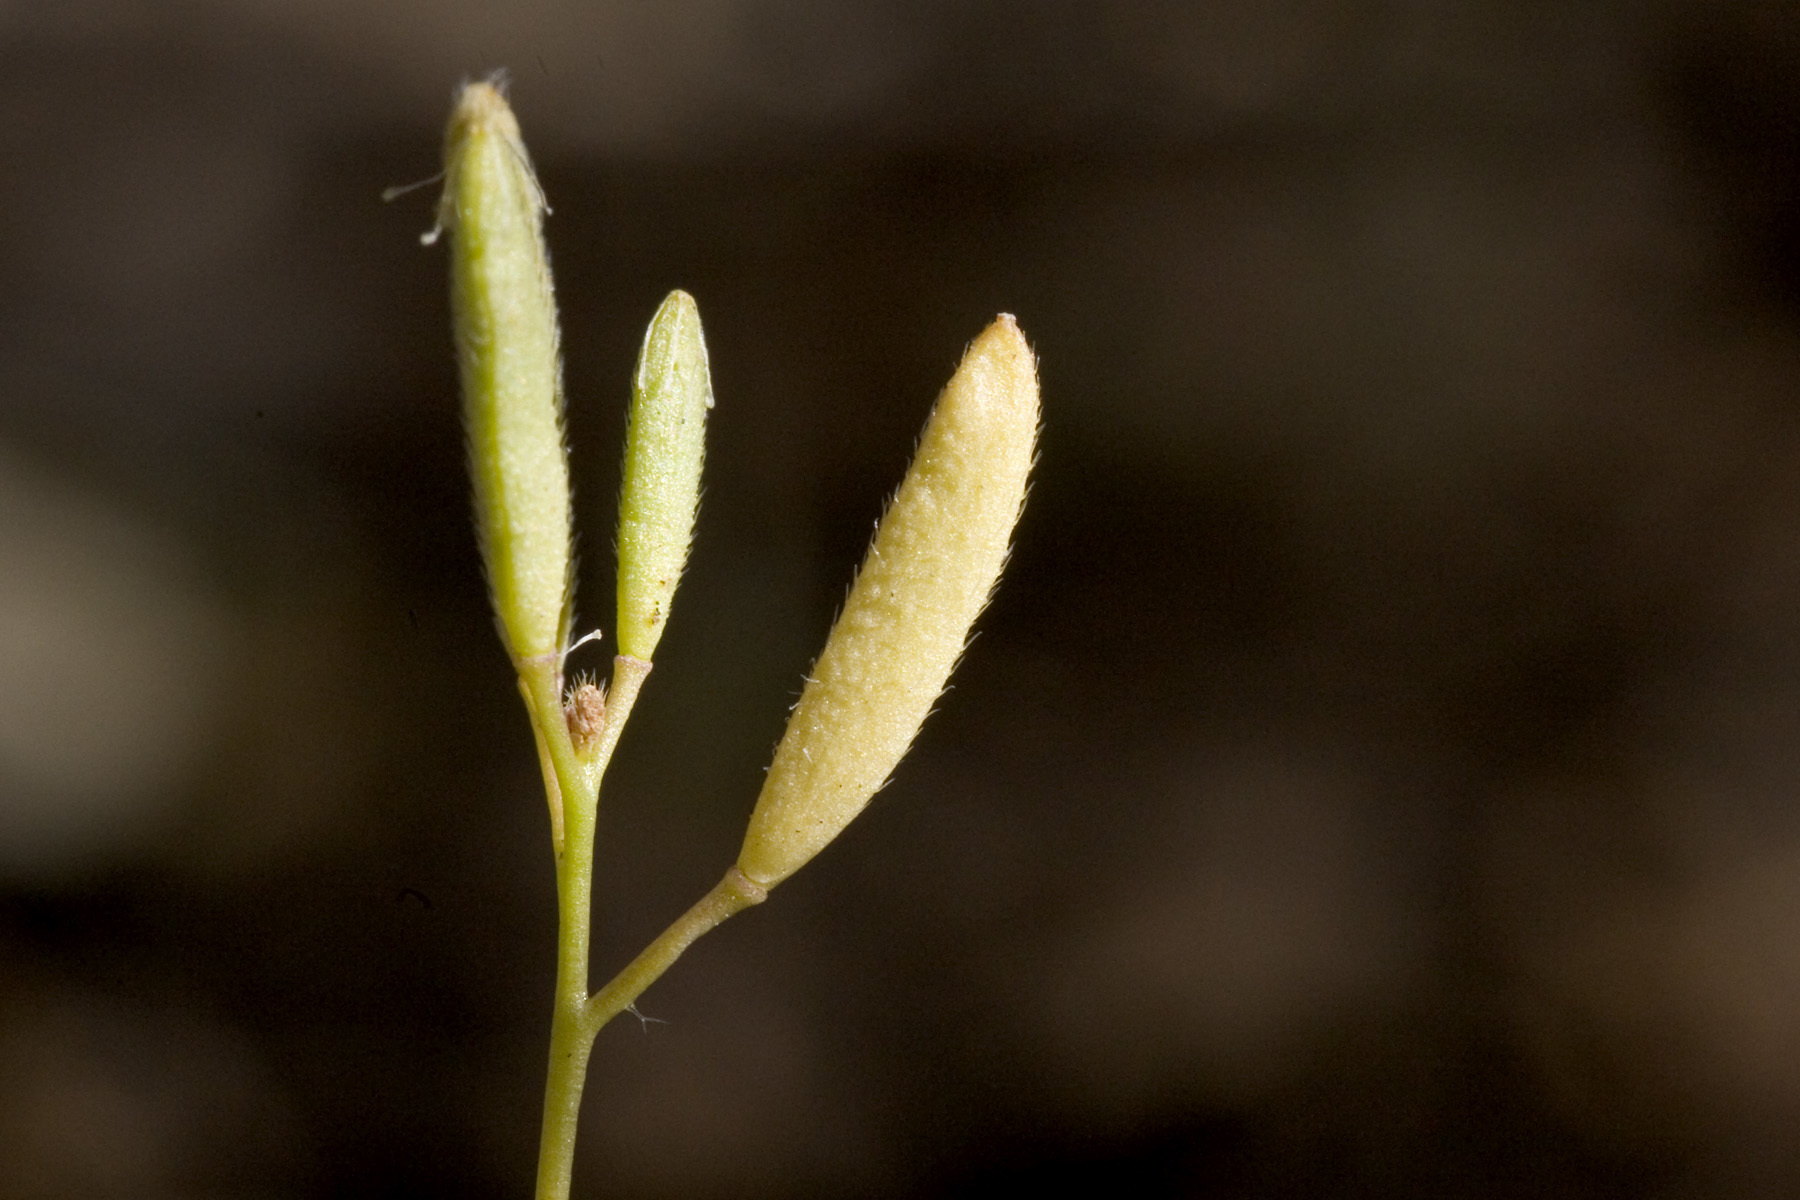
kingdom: Plantae
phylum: Tracheophyta
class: Magnoliopsida
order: Brassicales
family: Brassicaceae
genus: Tomostima
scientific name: Tomostima reptans
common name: Carolina draba
